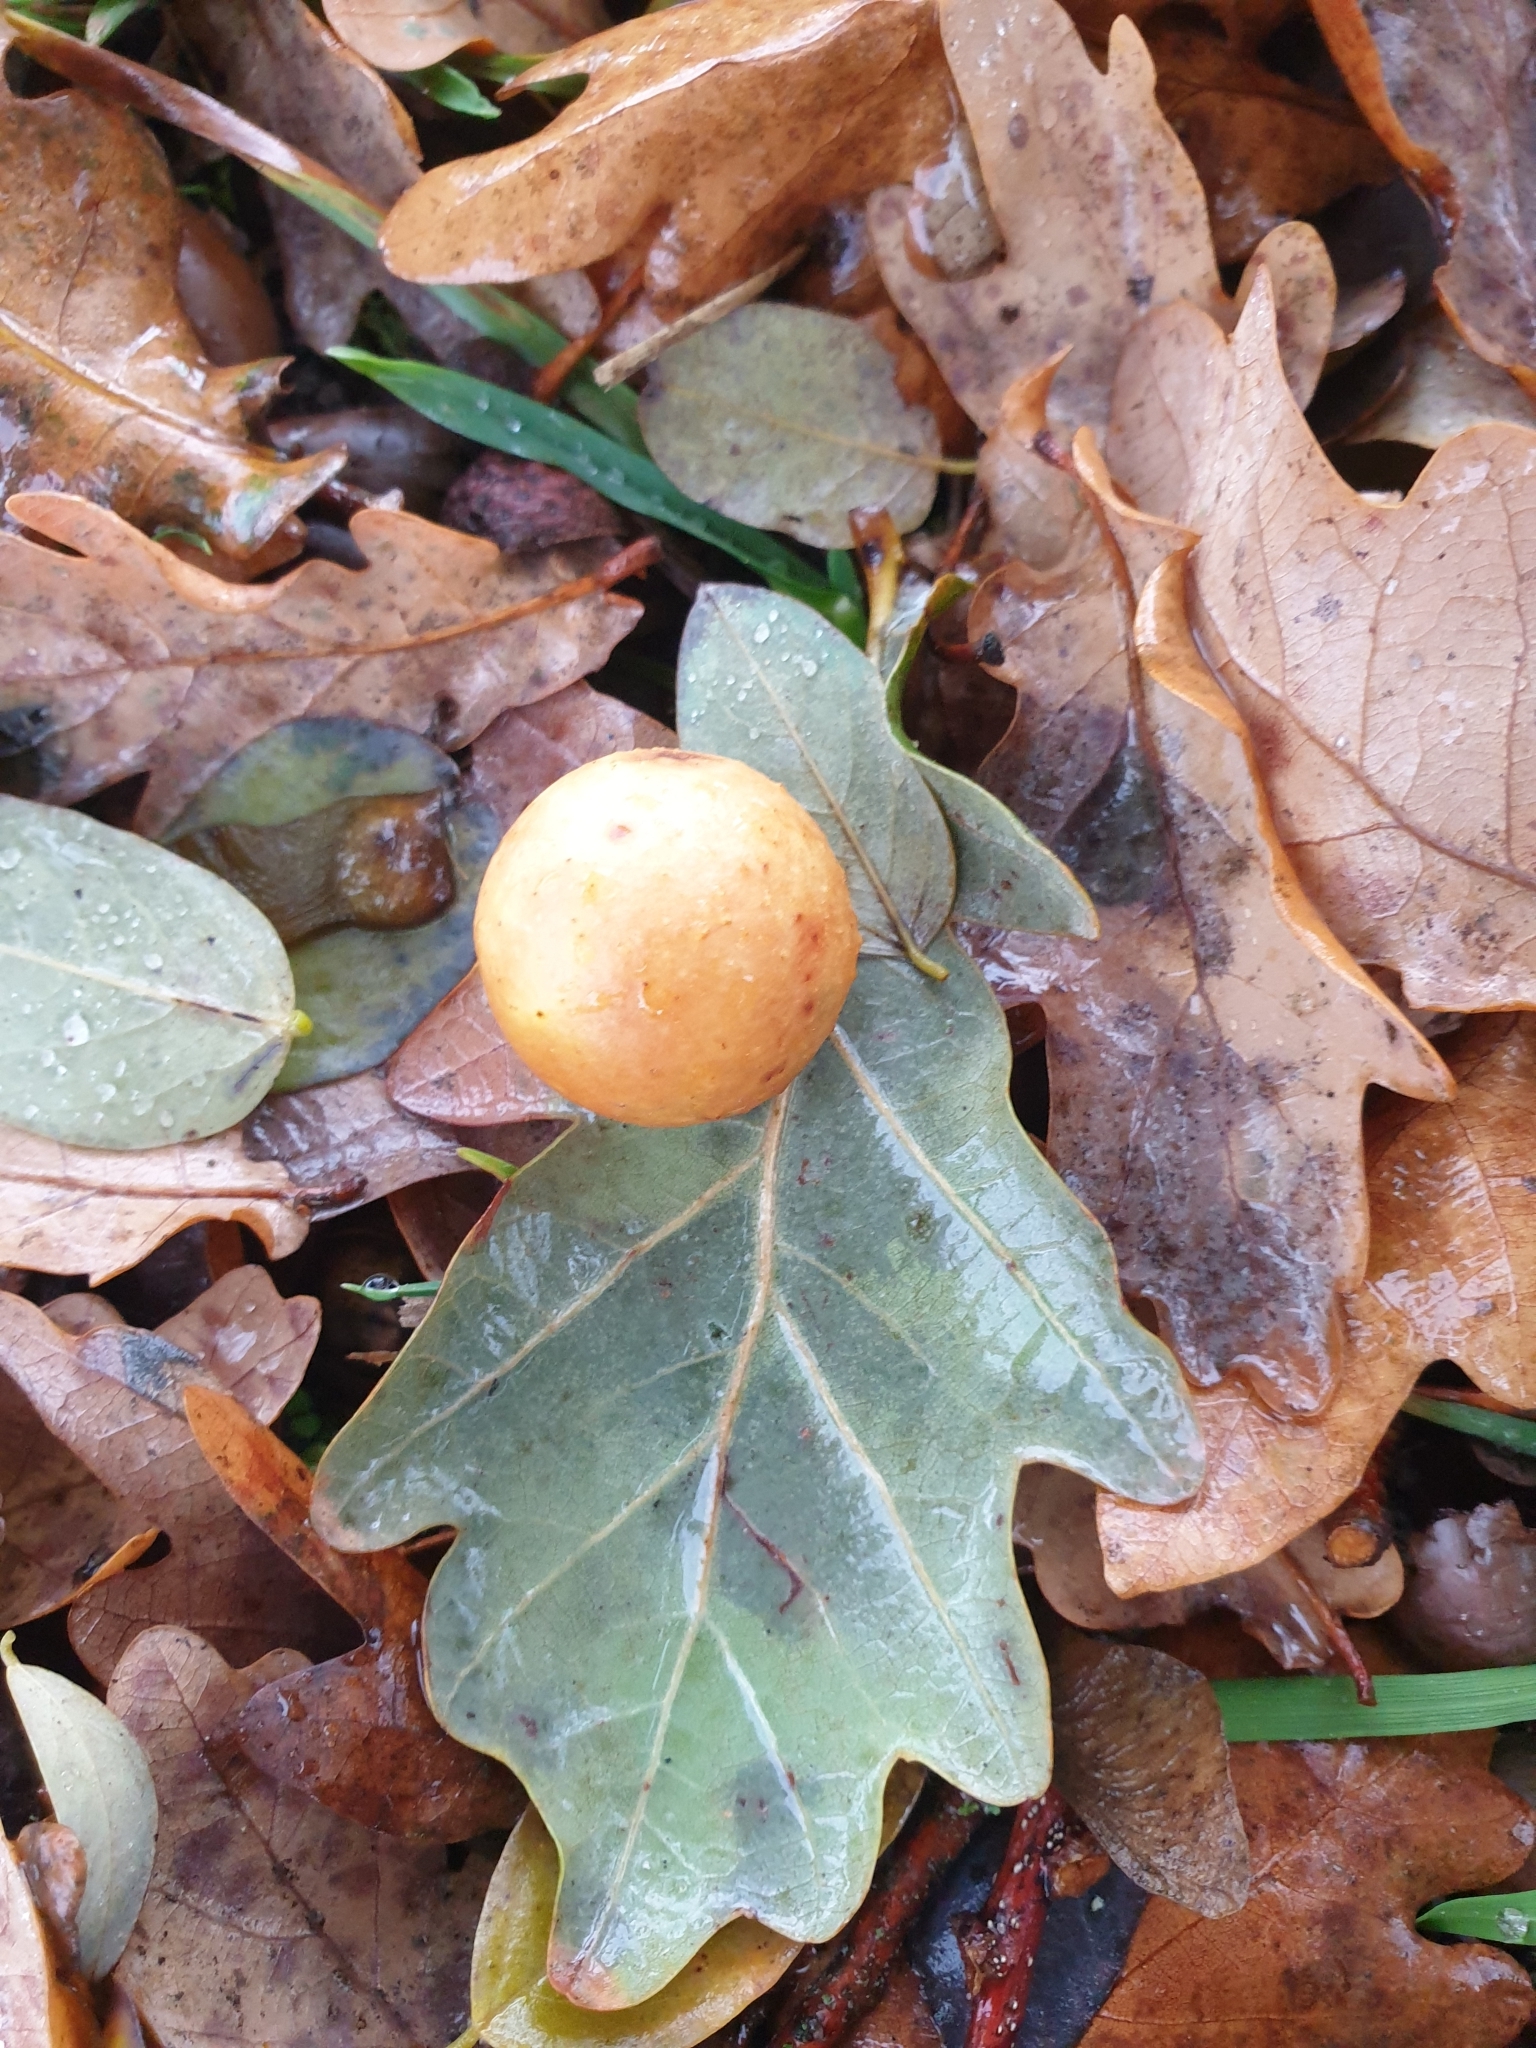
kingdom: Animalia
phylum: Arthropoda
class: Insecta
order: Hymenoptera
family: Cynipidae
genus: Cynips
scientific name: Cynips quercusfolii
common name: Cherry gall
